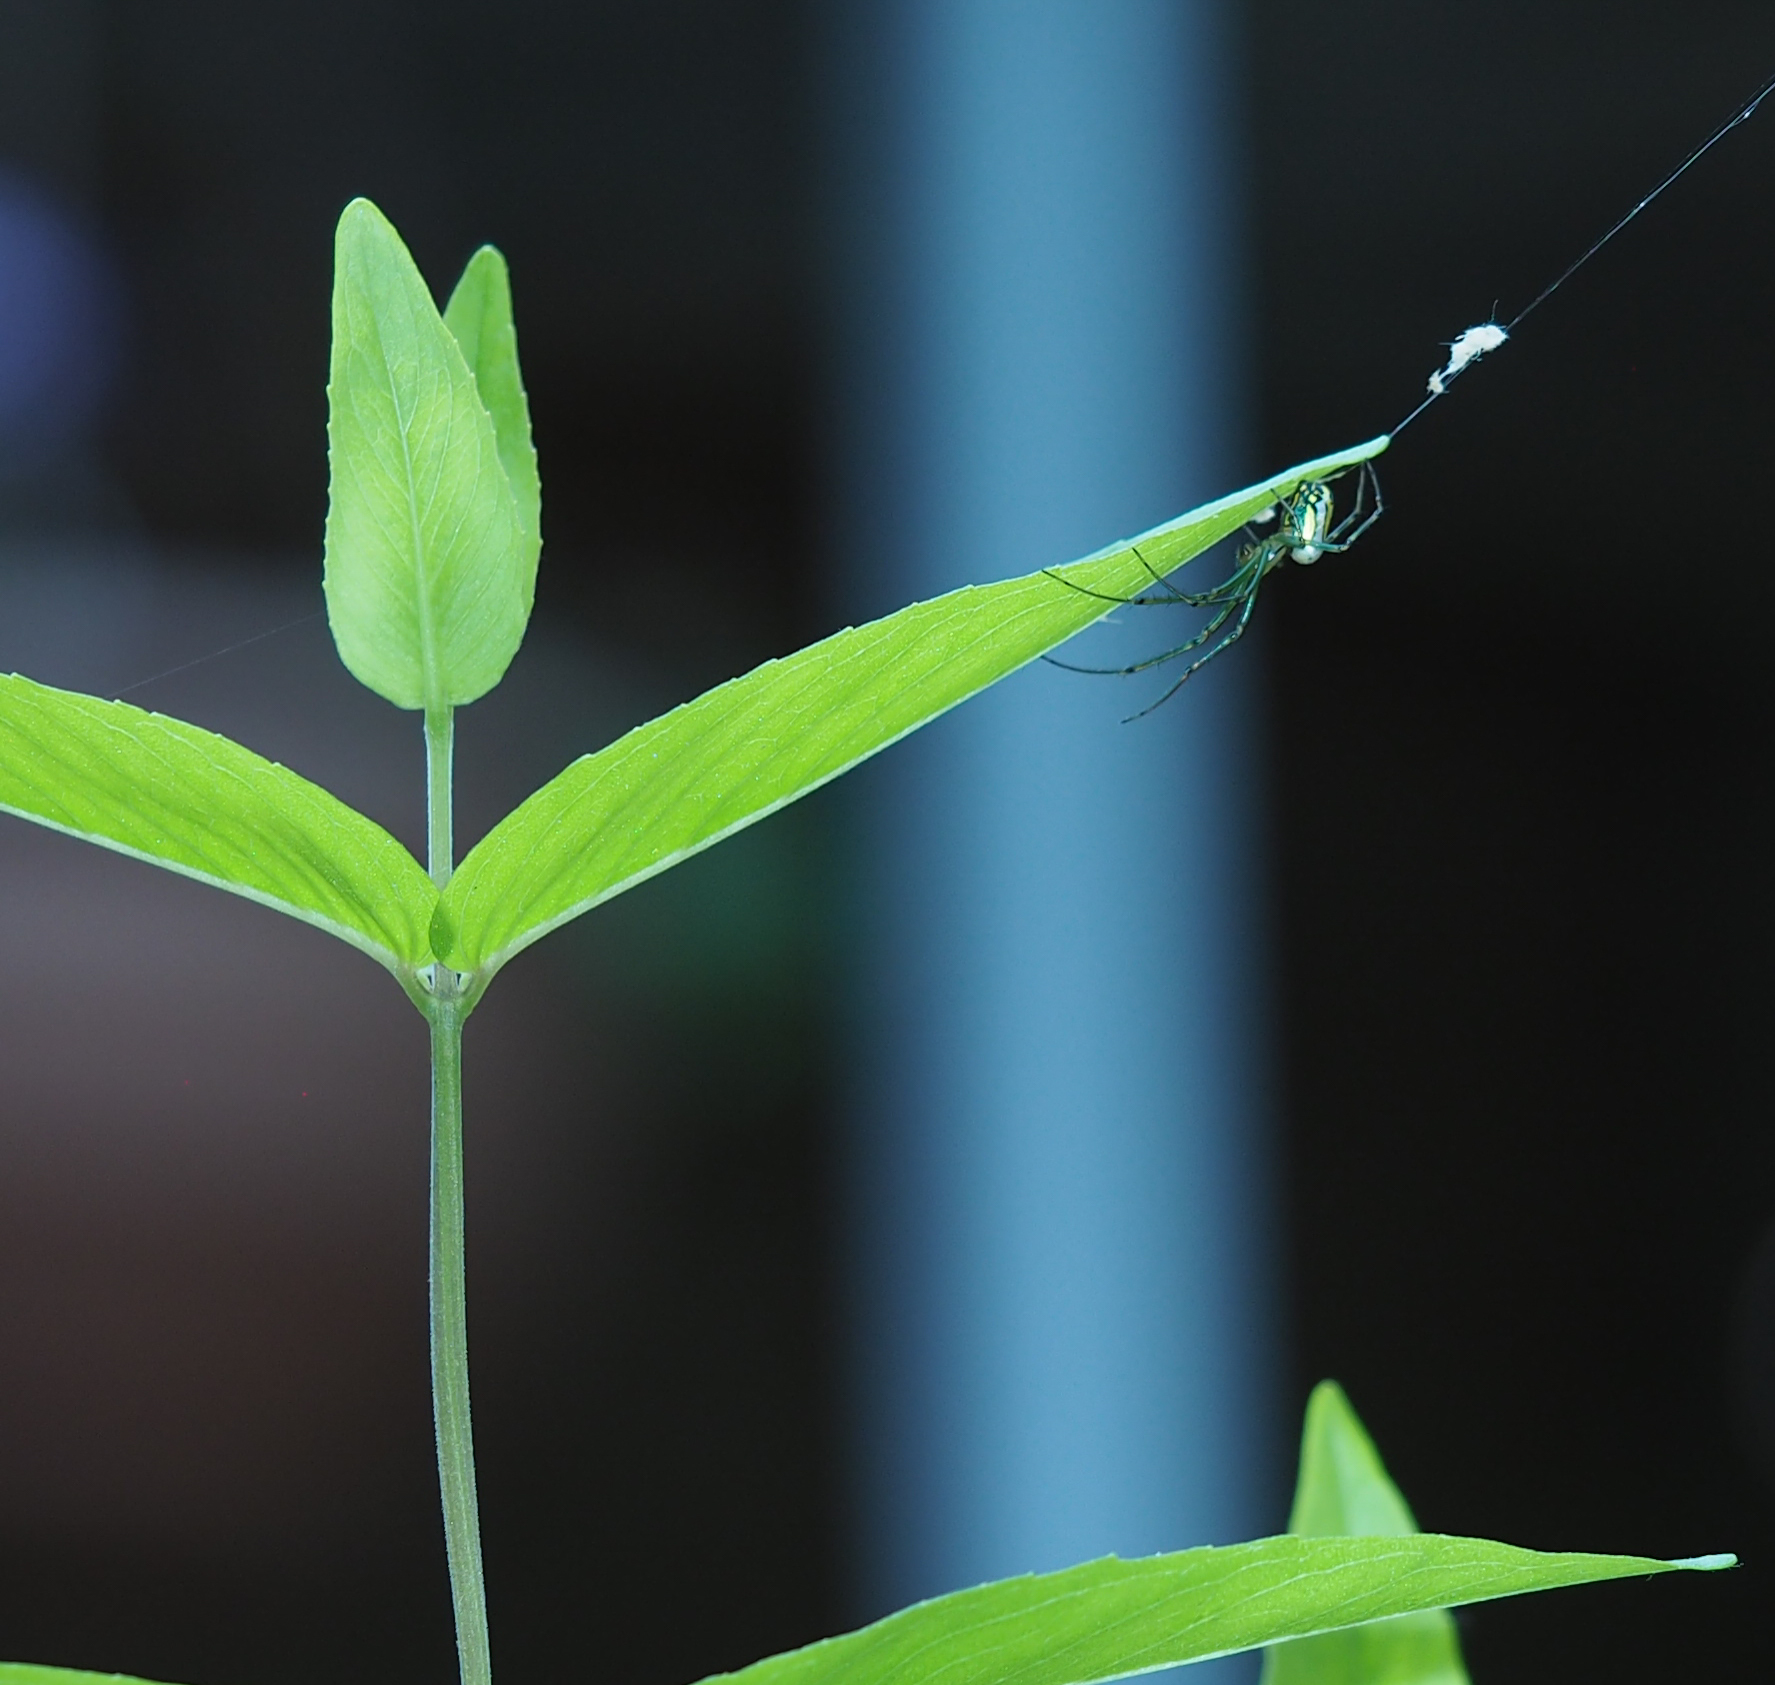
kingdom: Animalia
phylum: Arthropoda
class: Arachnida
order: Araneae
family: Tetragnathidae
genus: Leucauge
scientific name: Leucauge venusta
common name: Longjawed orb weavers
